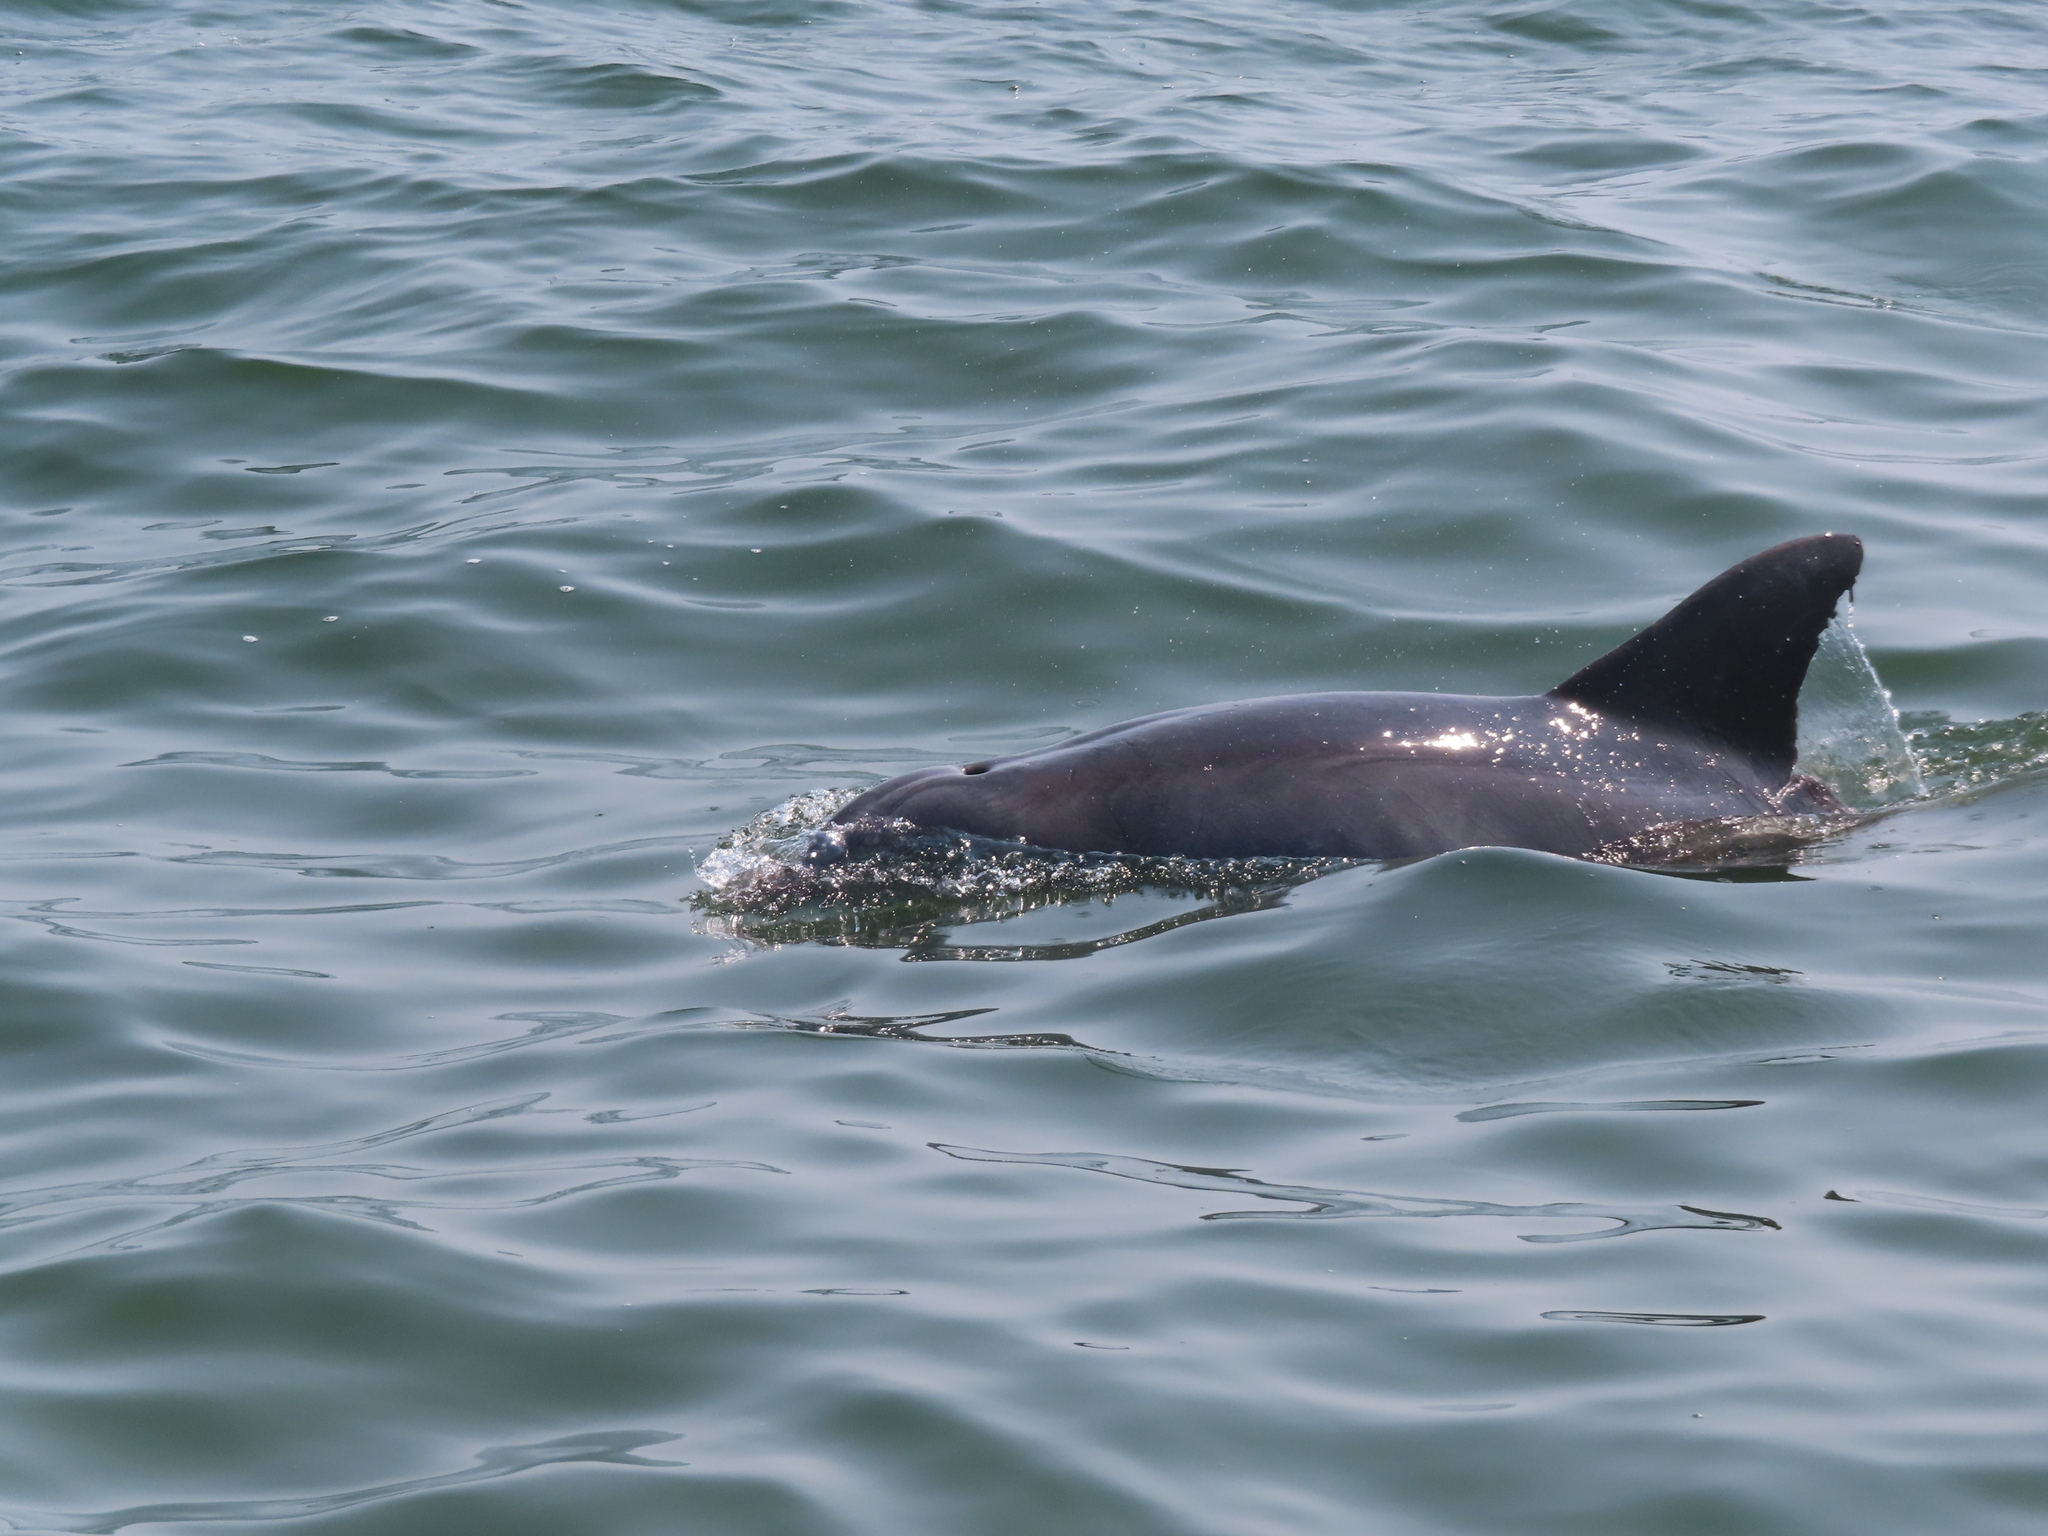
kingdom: Animalia
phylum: Chordata
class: Mammalia
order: Cetacea
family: Delphinidae
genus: Tursiops
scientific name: Tursiops truncatus
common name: Bottlenose dolphin
